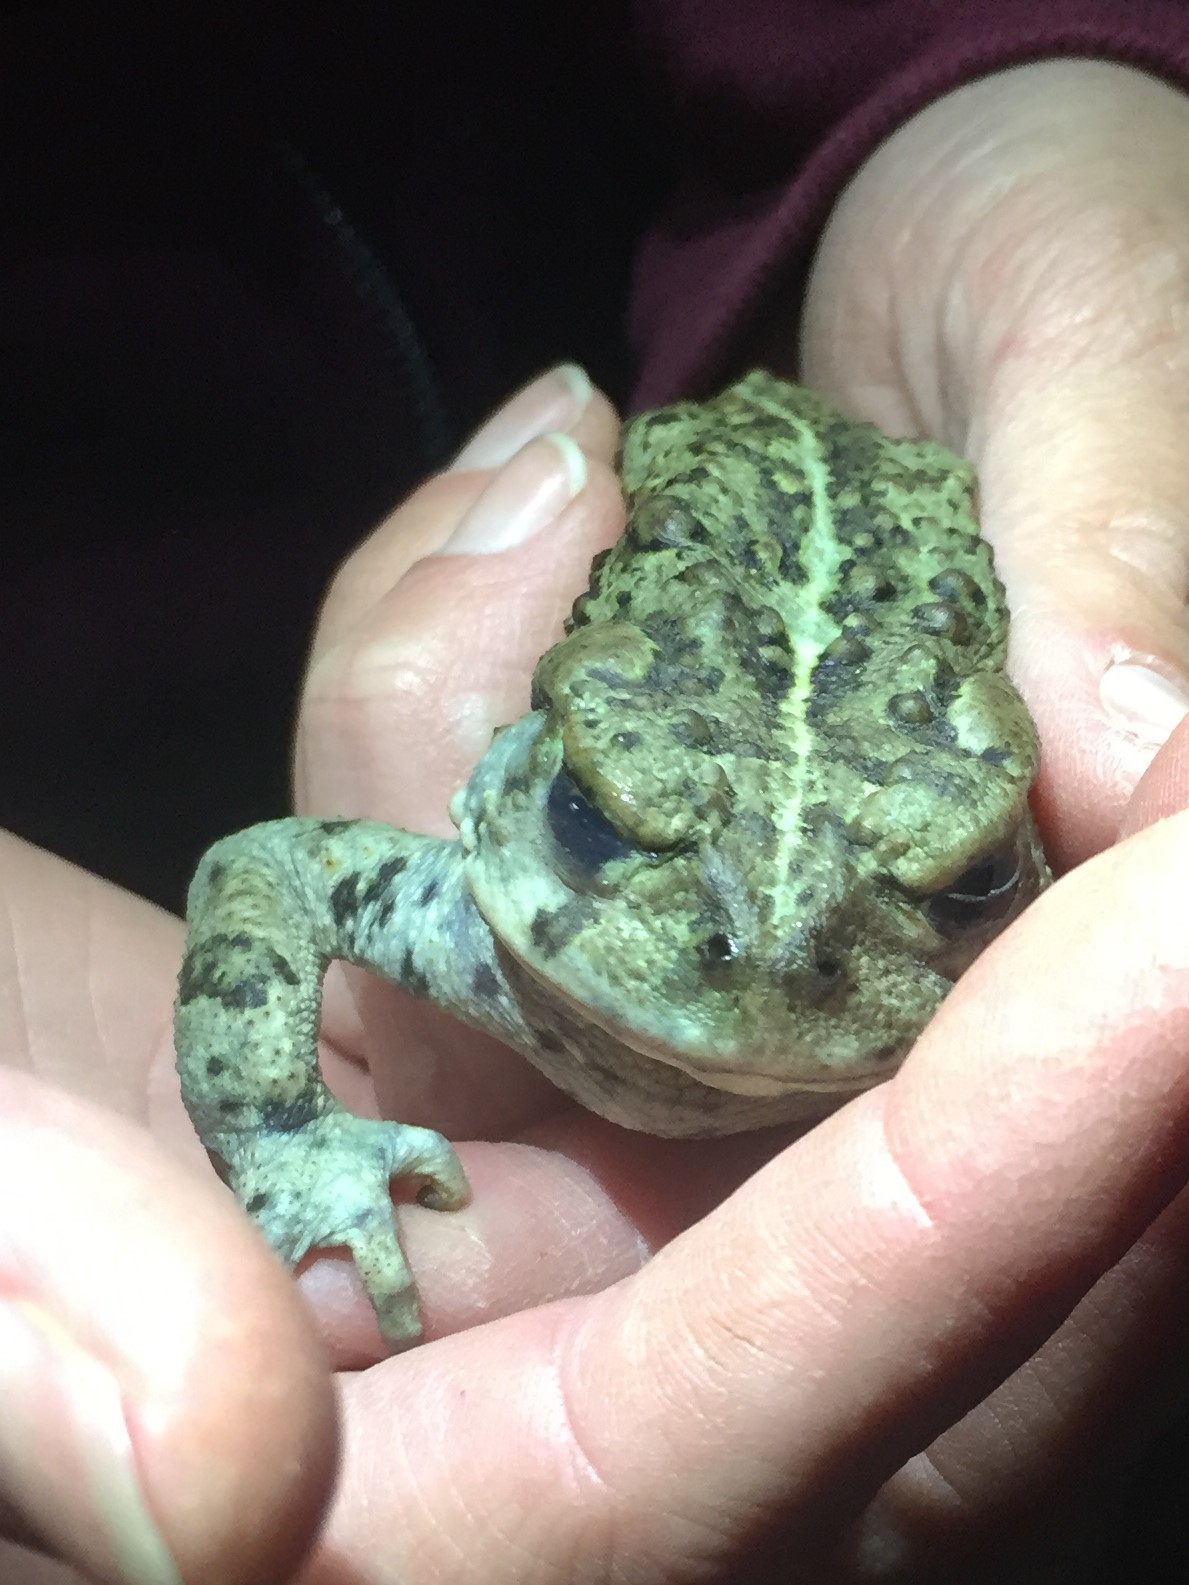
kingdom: Animalia
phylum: Chordata
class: Amphibia
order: Anura
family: Bufonidae
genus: Anaxyrus
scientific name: Anaxyrus boreas
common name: Western toad
